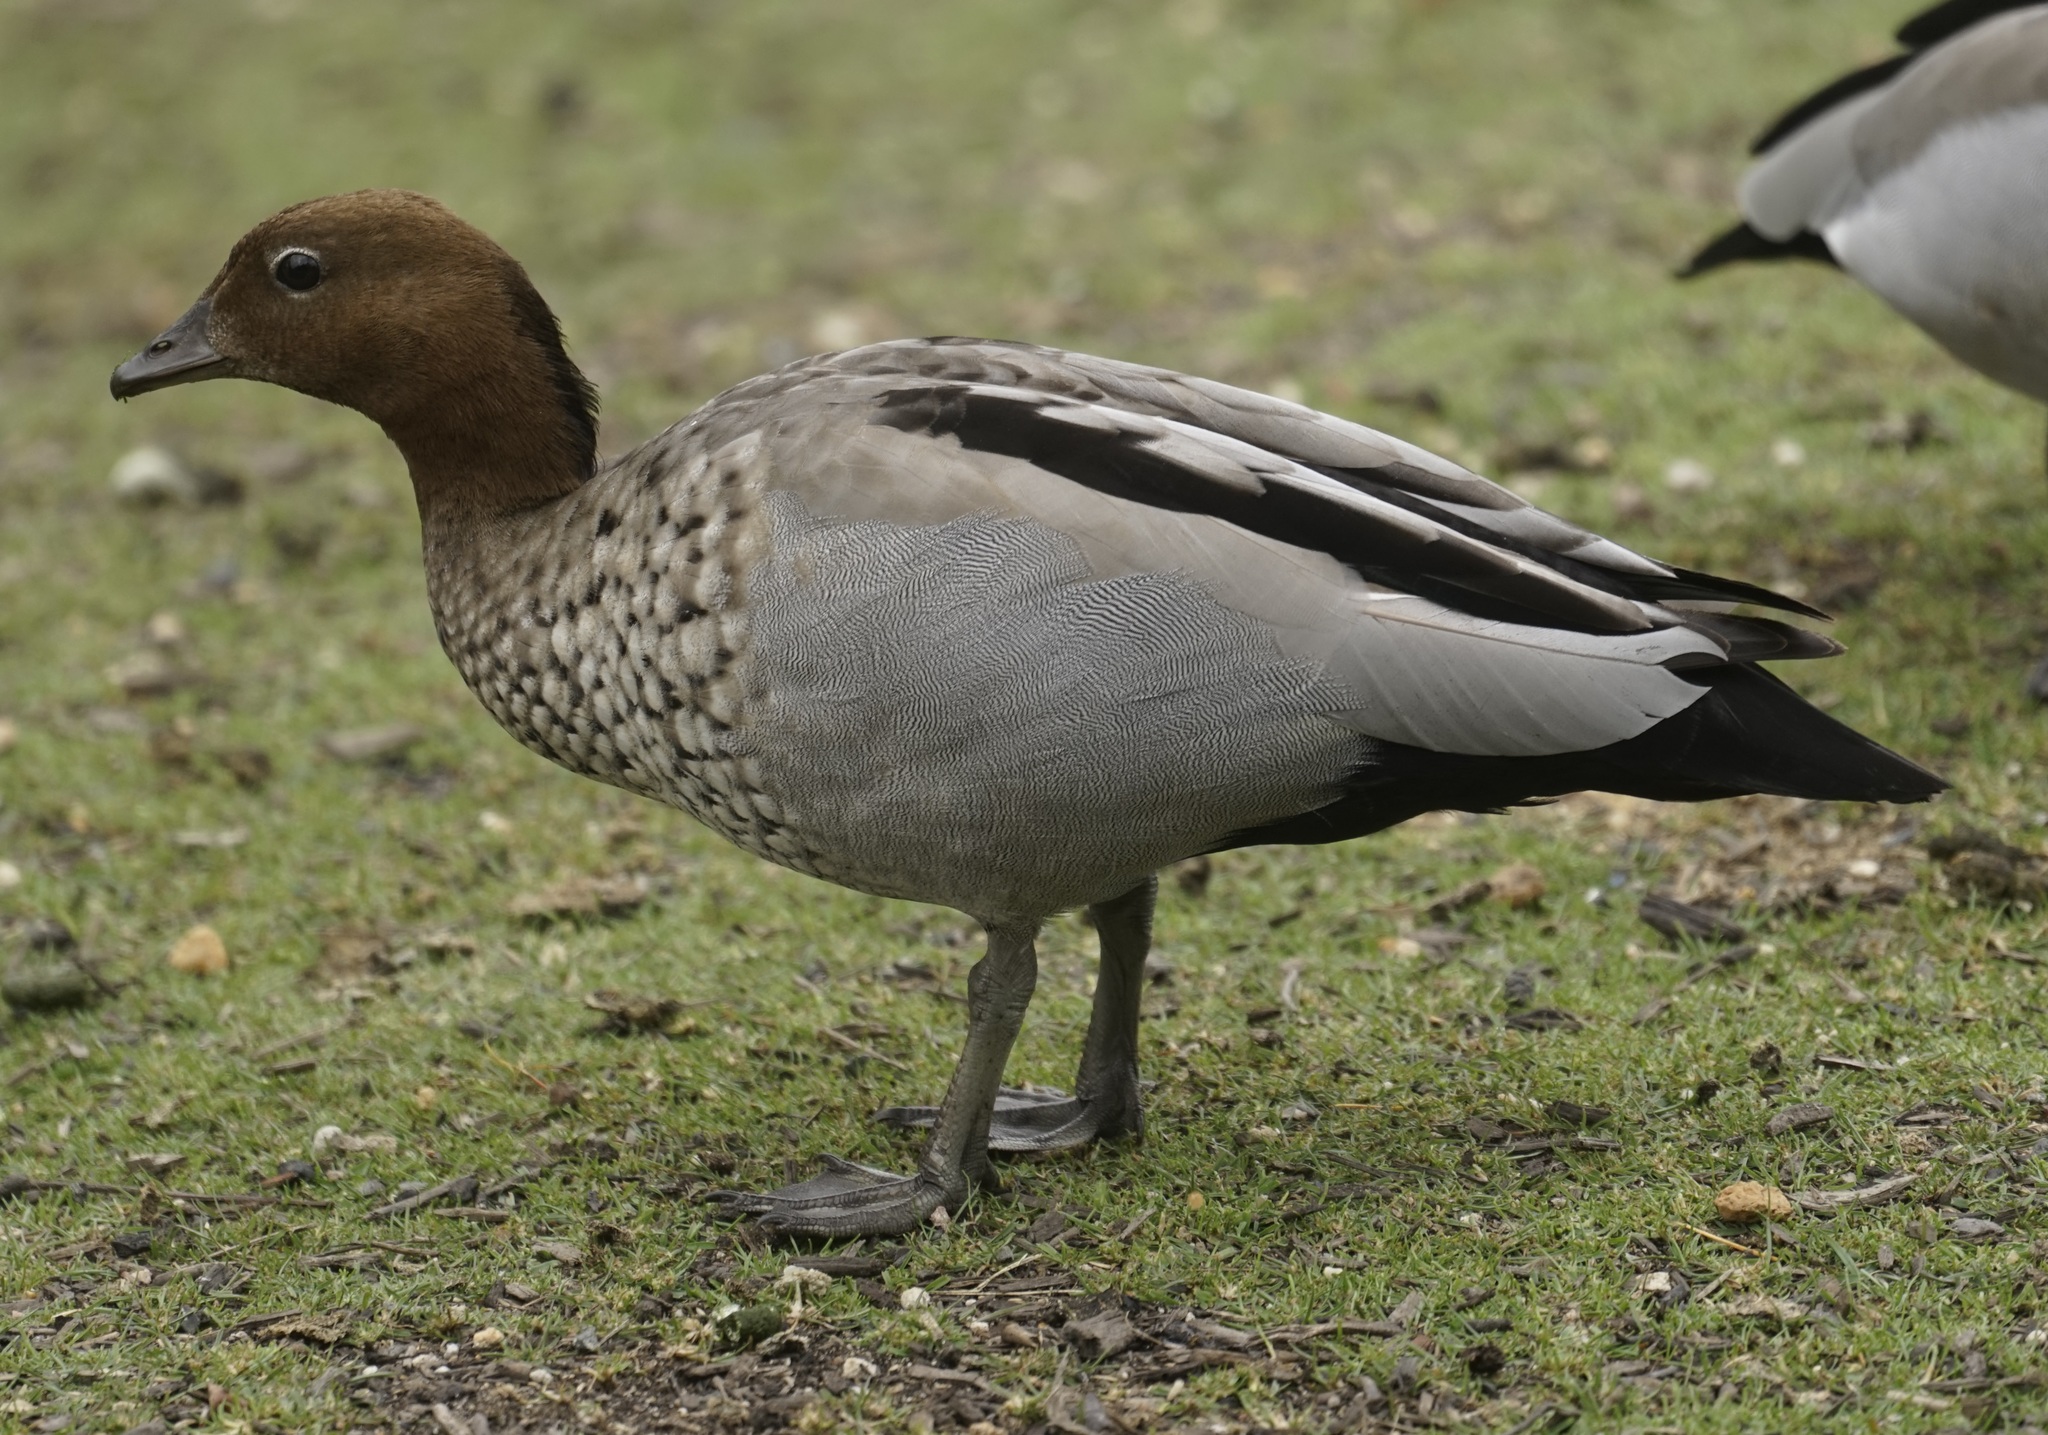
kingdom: Animalia
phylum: Chordata
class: Aves
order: Anseriformes
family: Anatidae
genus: Chenonetta
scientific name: Chenonetta jubata
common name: Maned duck
